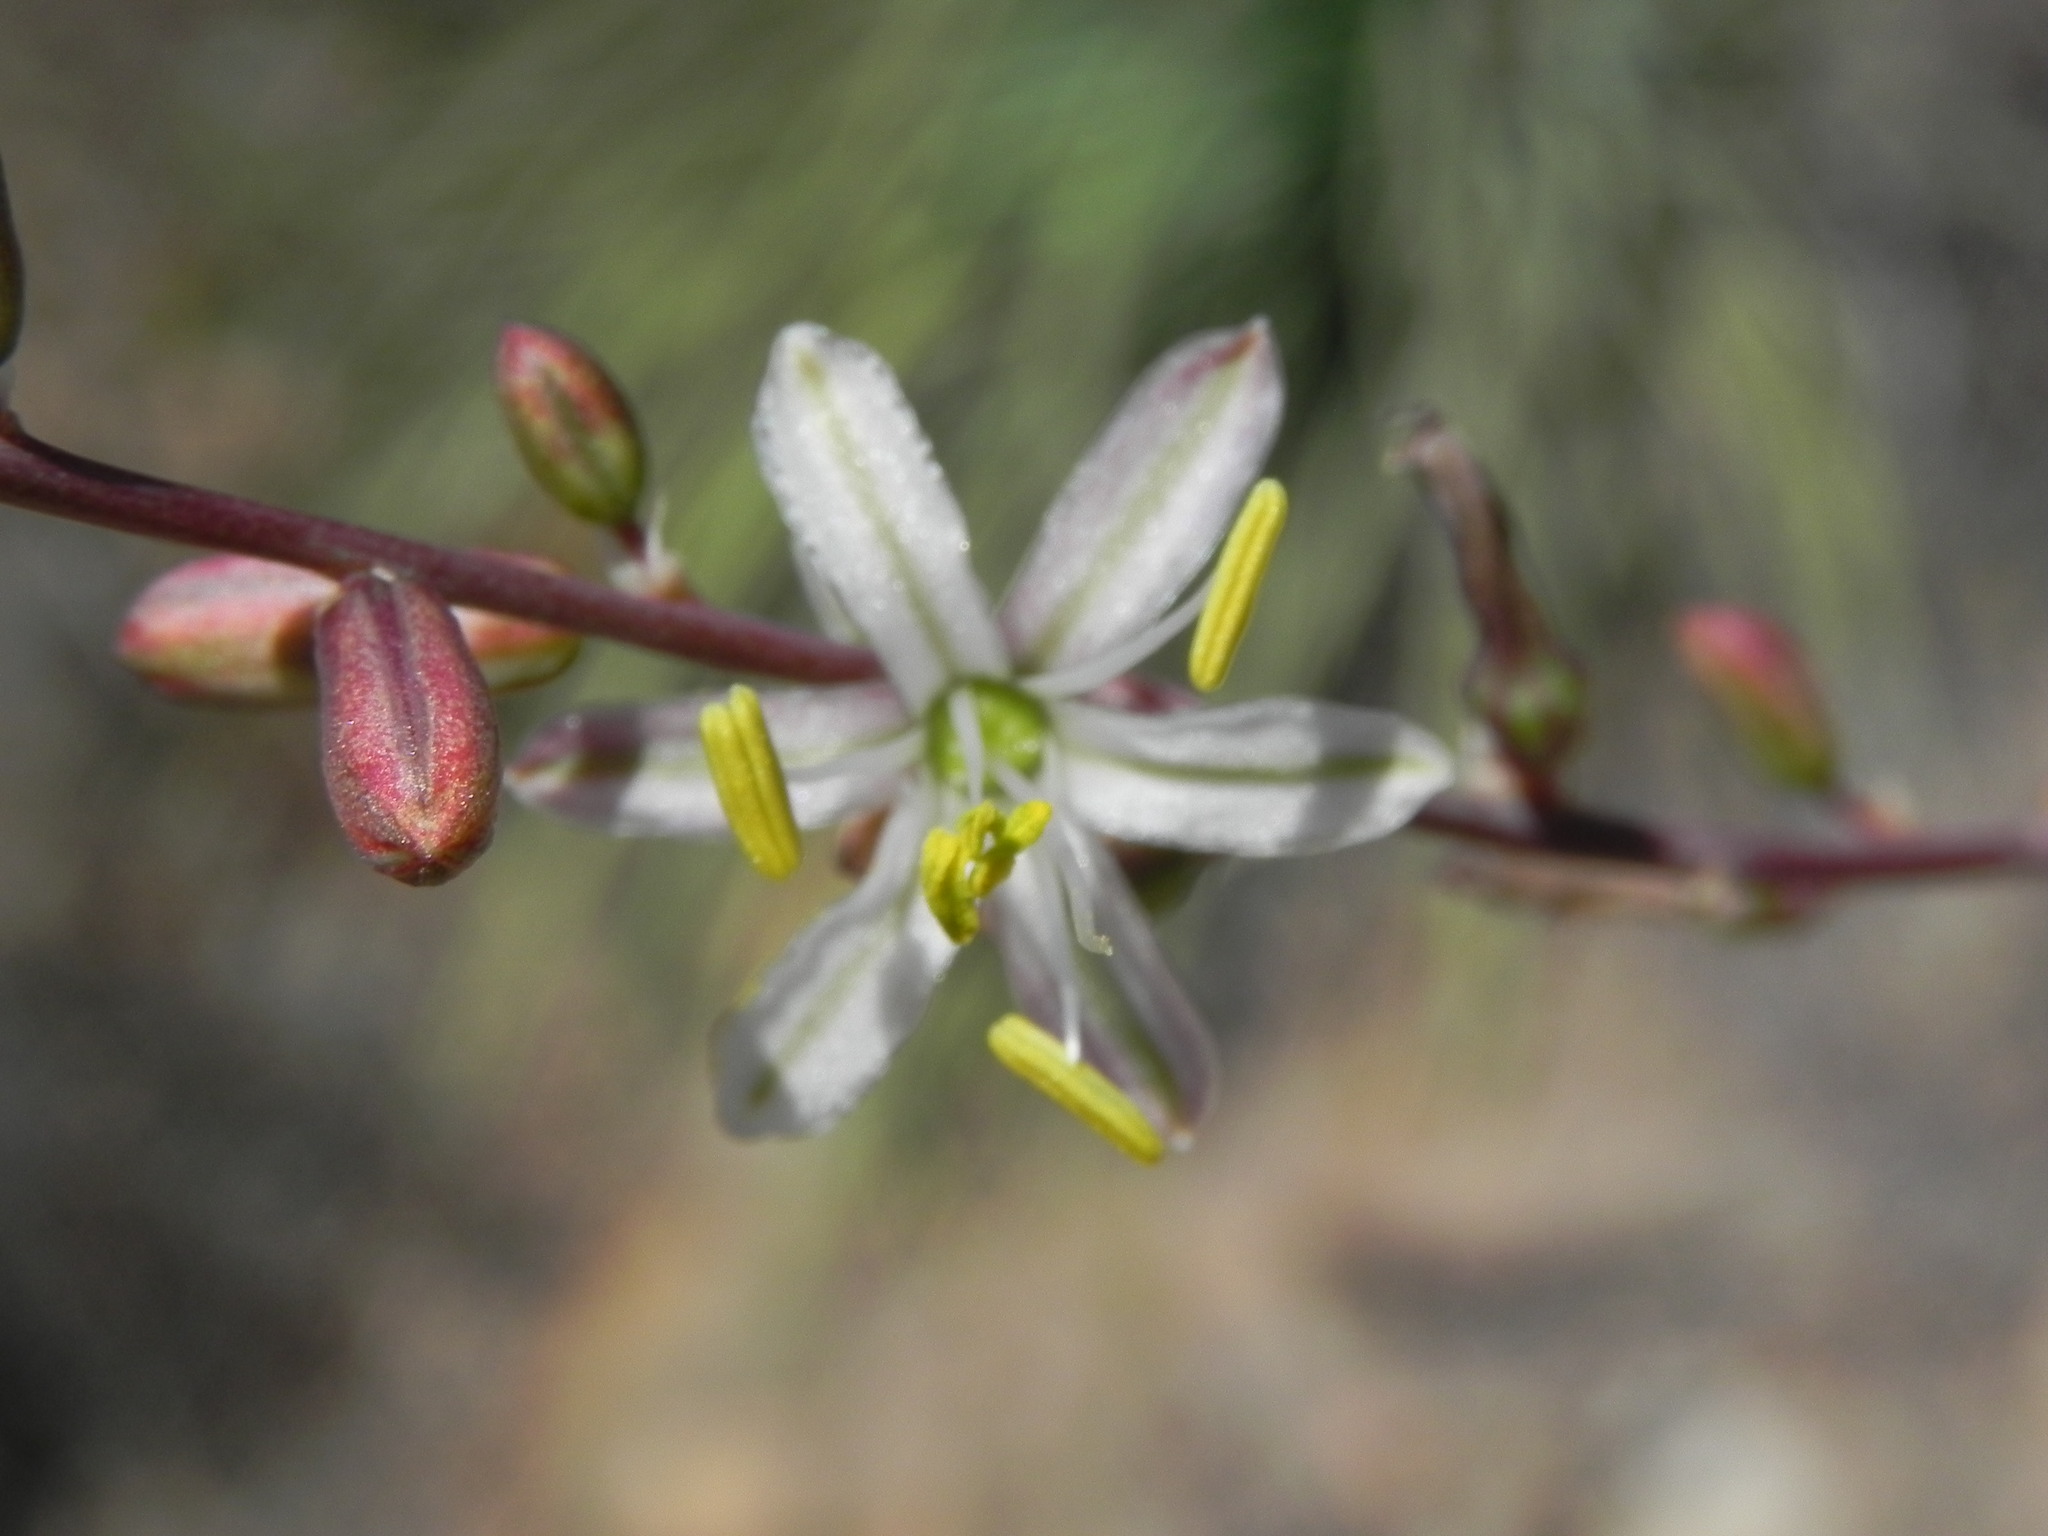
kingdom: Plantae
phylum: Tracheophyta
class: Liliopsida
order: Asparagales
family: Asparagaceae
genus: Hooveria
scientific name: Hooveria parviflora
